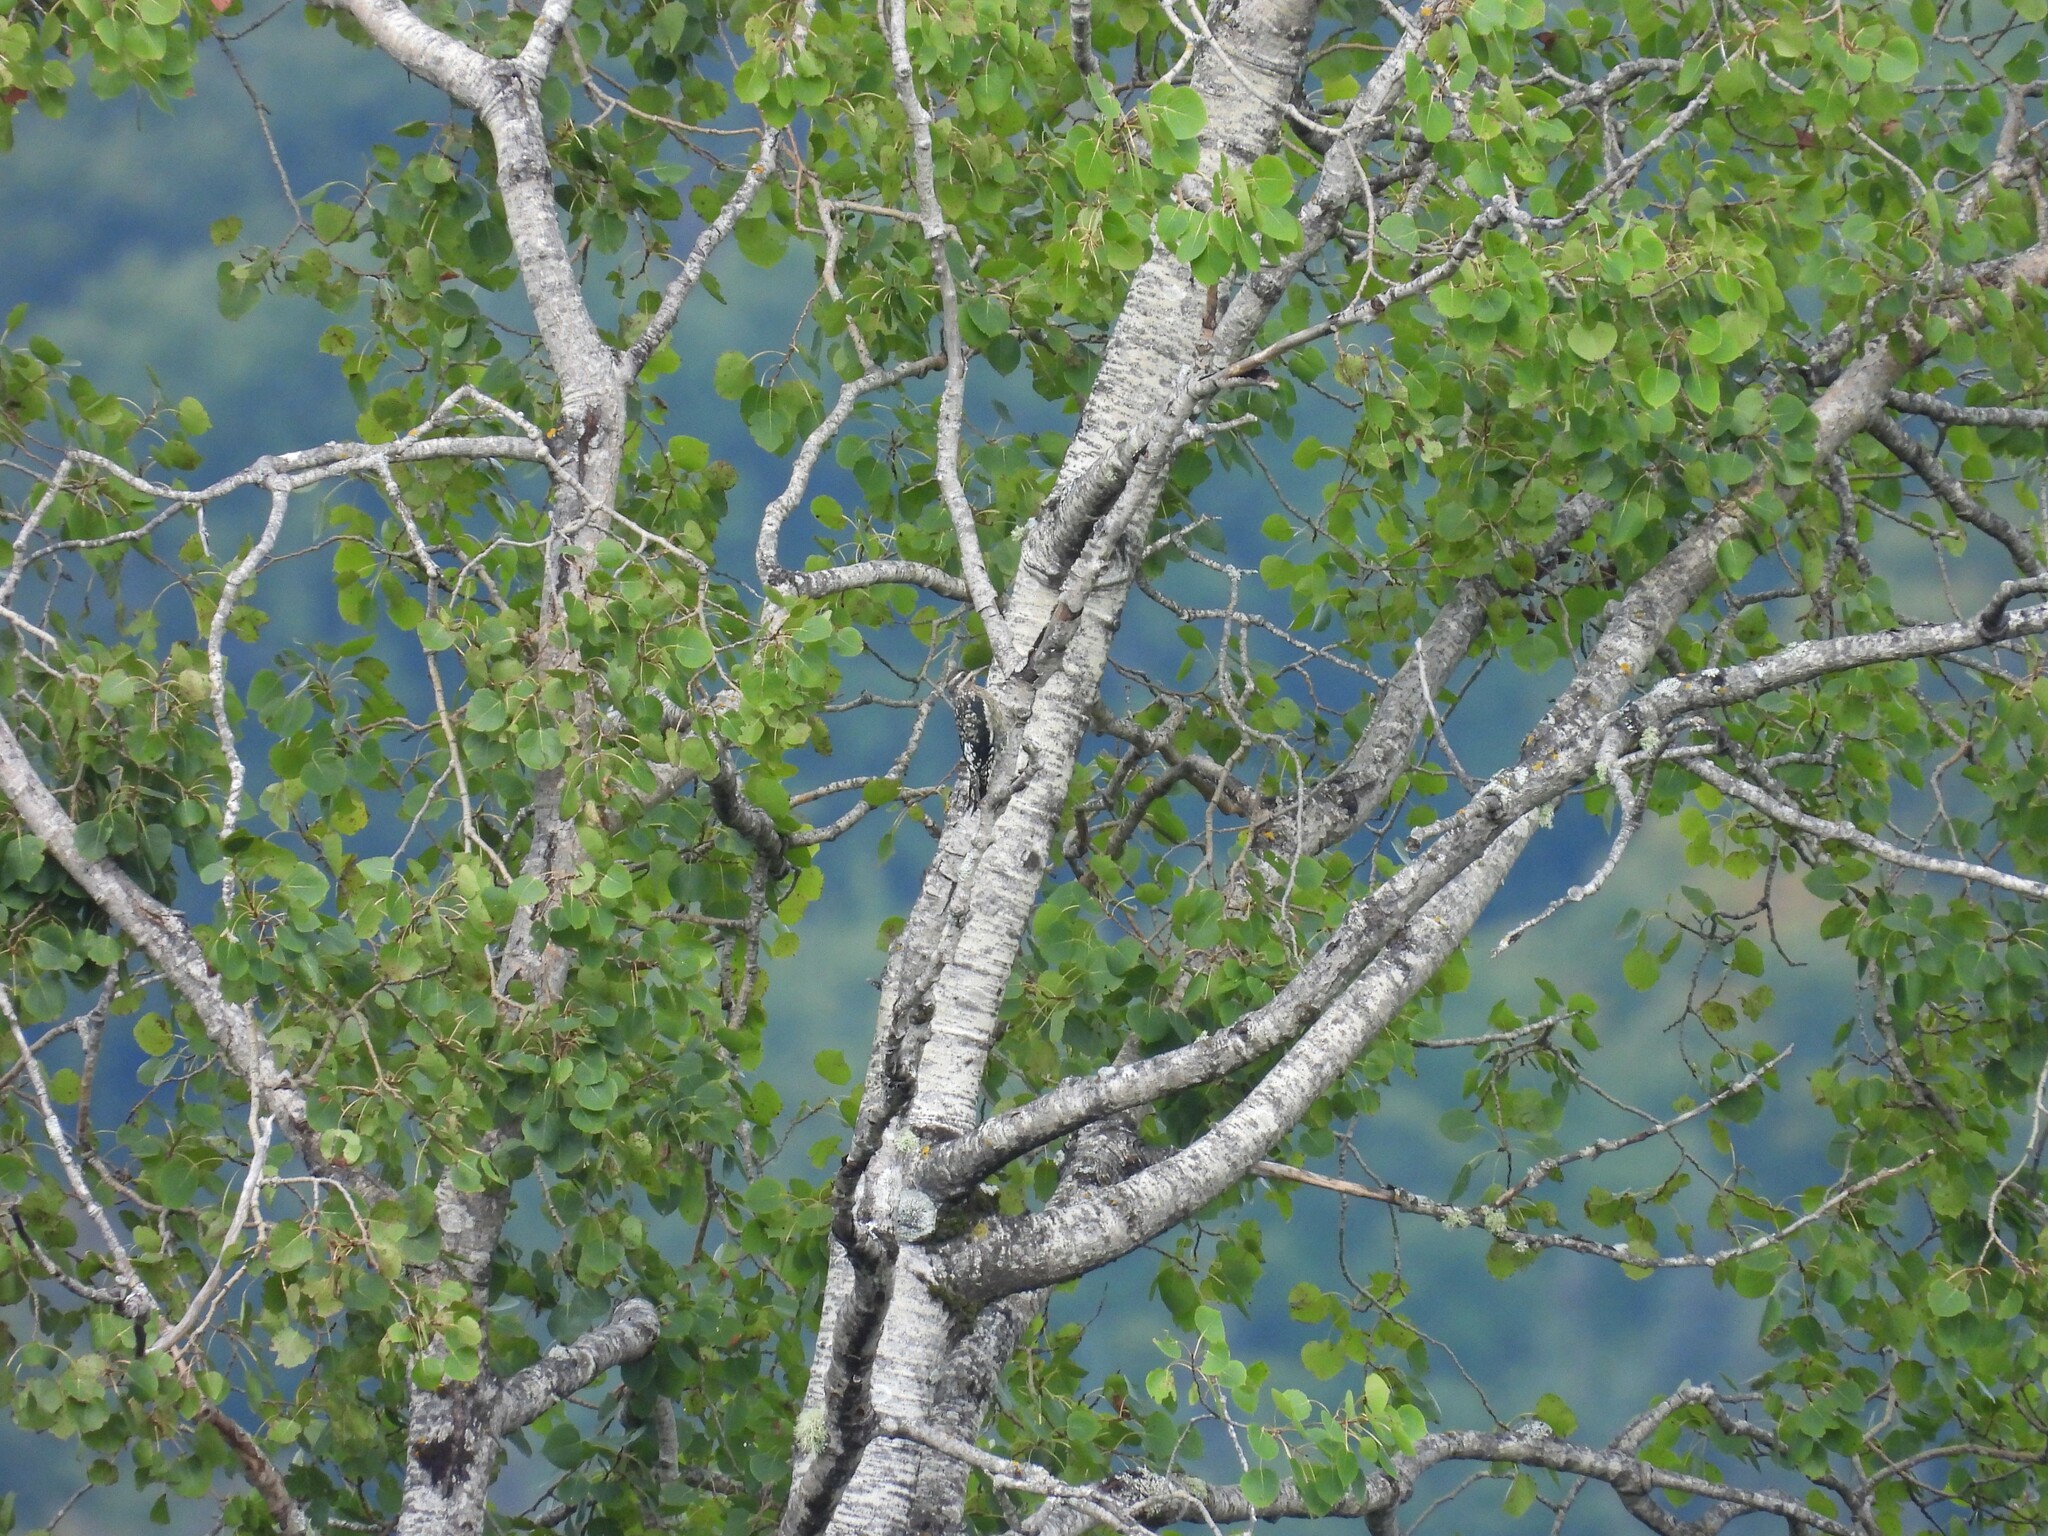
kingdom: Animalia
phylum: Chordata
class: Aves
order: Piciformes
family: Picidae
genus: Sphyrapicus
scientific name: Sphyrapicus varius
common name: Yellow-bellied sapsucker
